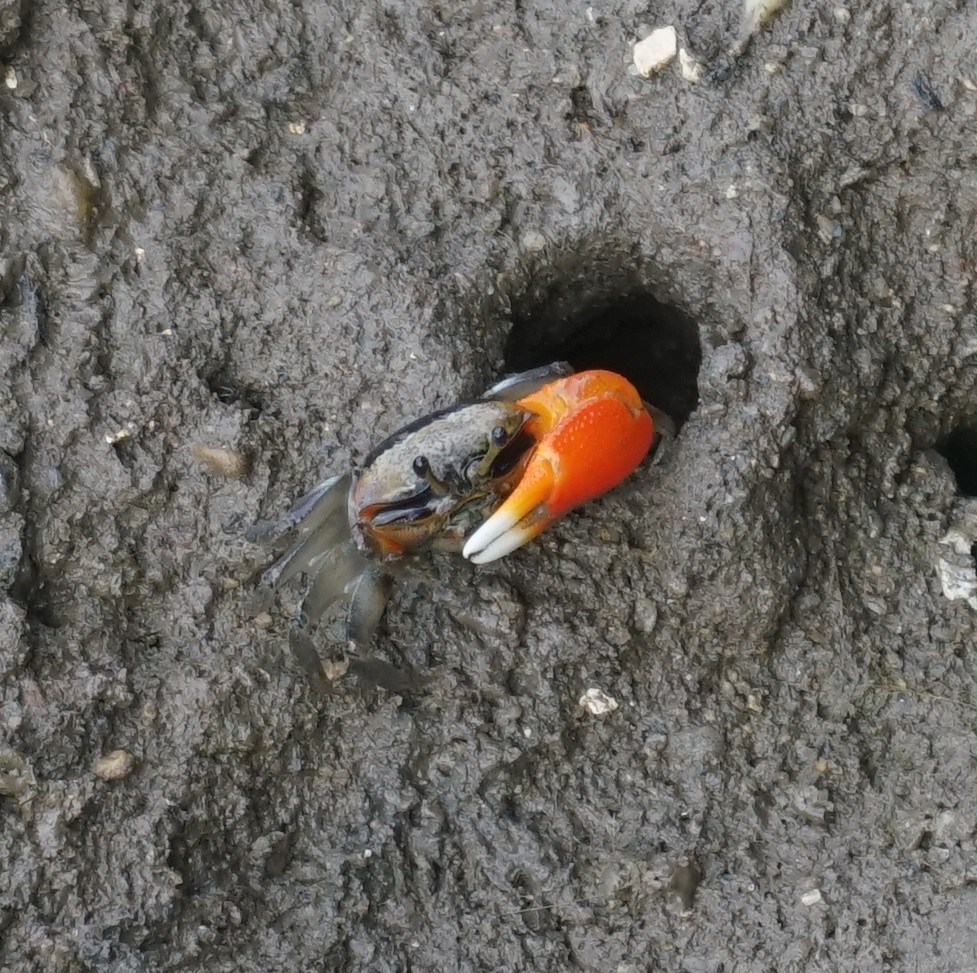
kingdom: Animalia
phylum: Arthropoda
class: Malacostraca
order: Decapoda
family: Ocypodidae
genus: Tubuca
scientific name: Tubuca coarctata
